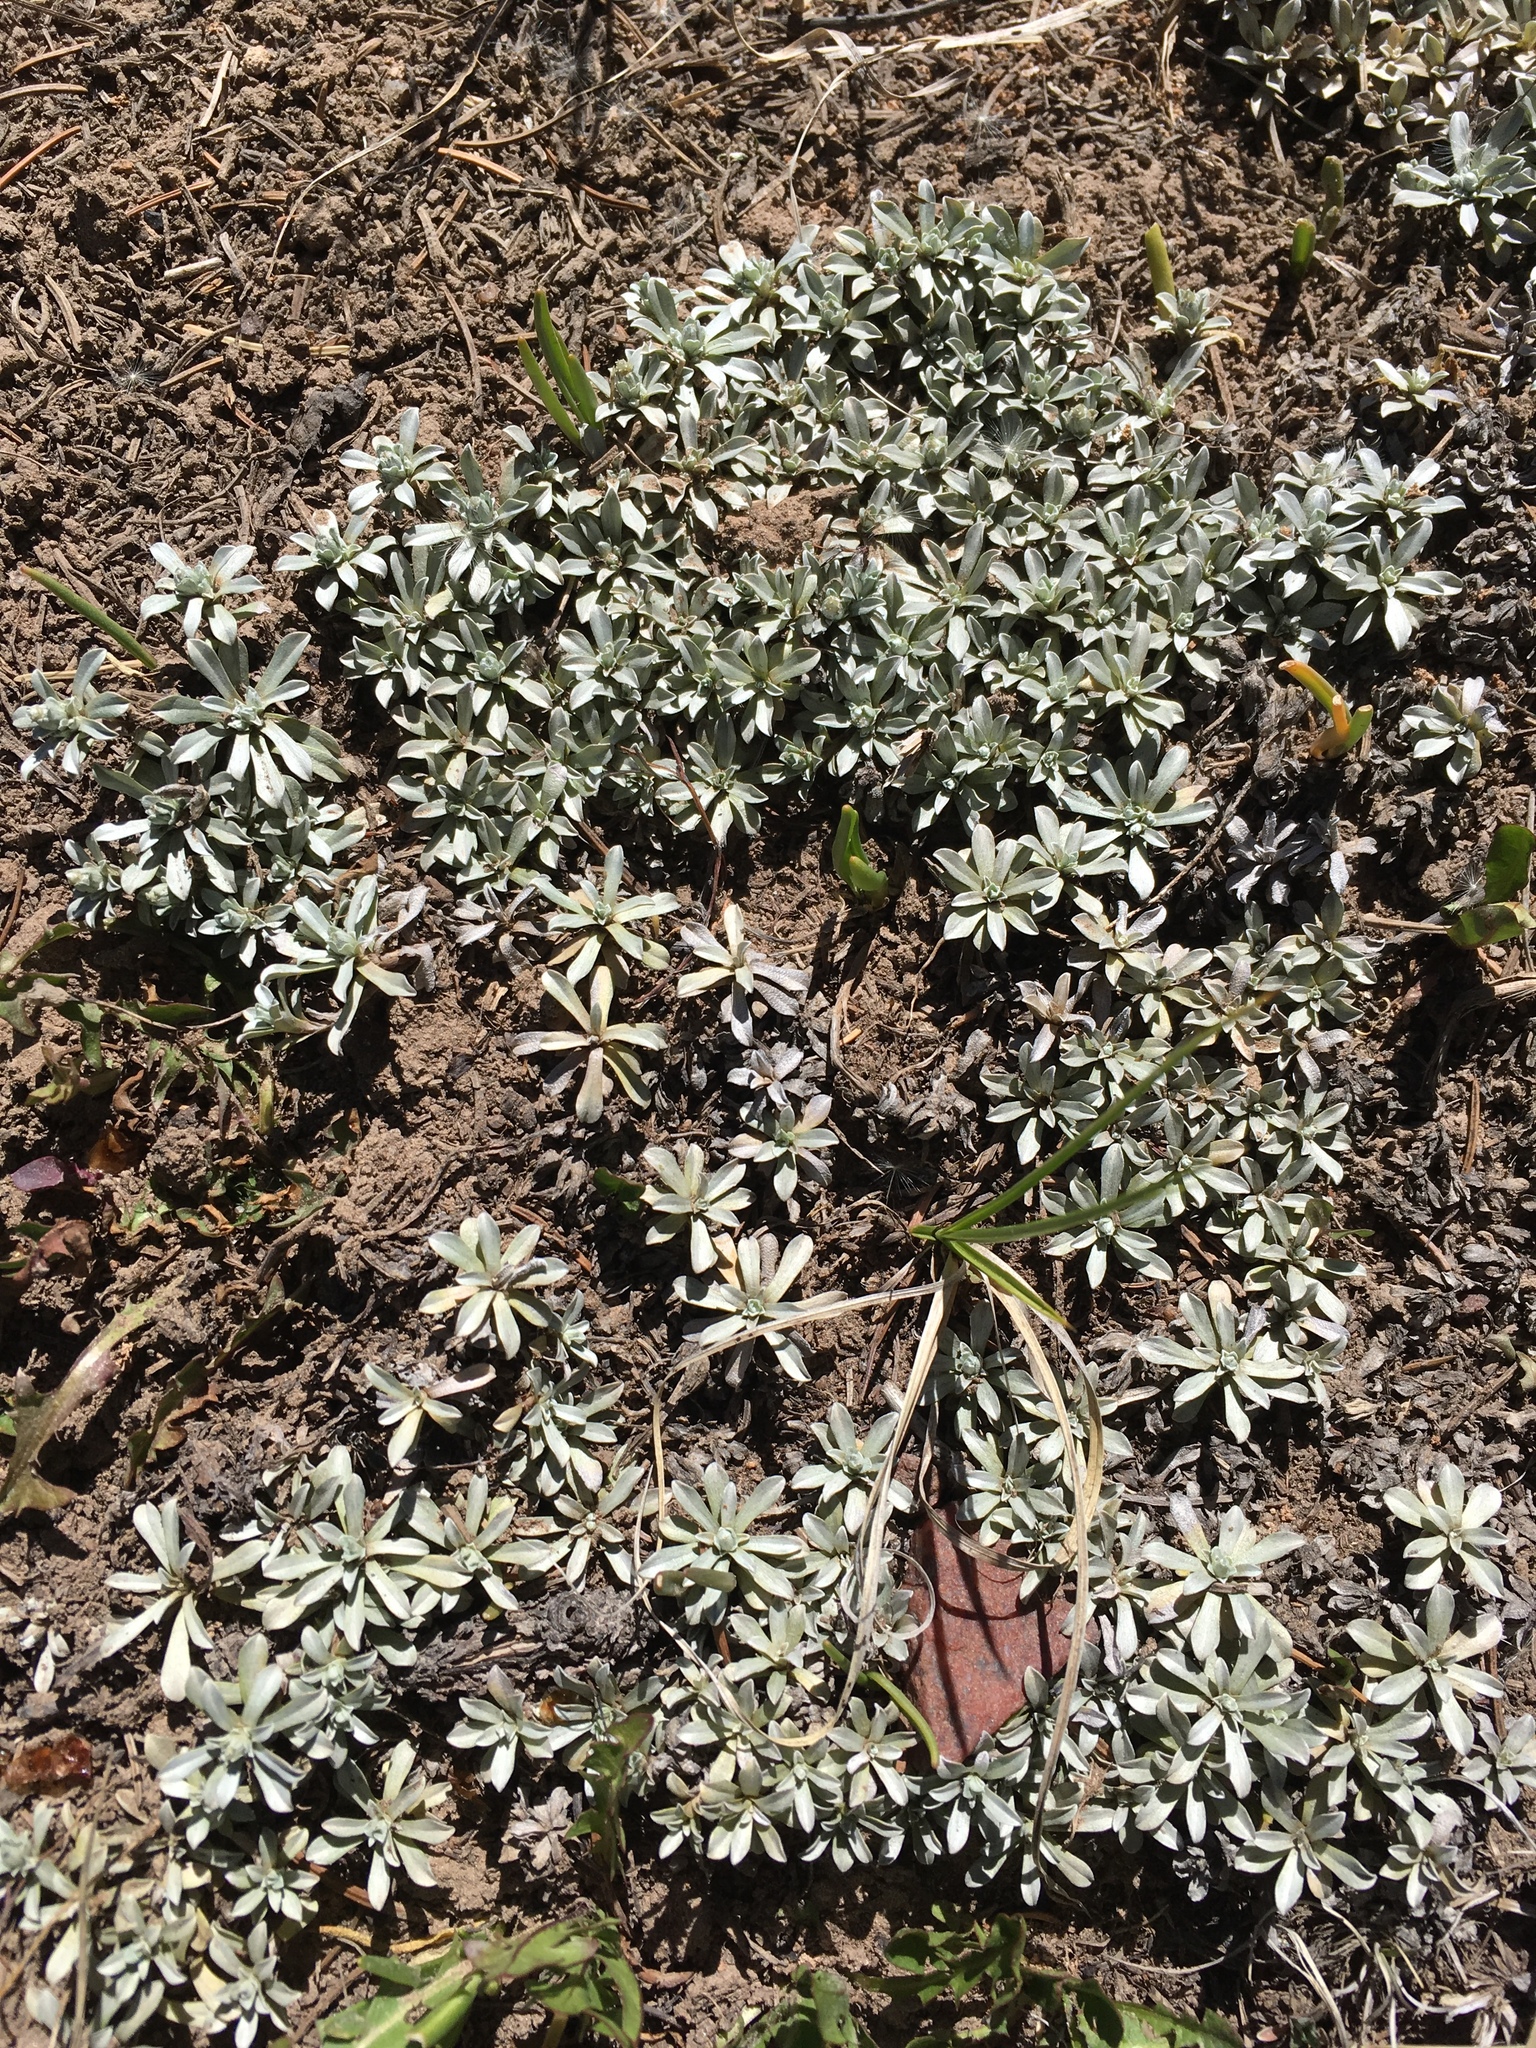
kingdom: Plantae
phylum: Tracheophyta
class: Magnoliopsida
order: Asterales
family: Asteraceae
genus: Antennaria
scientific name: Antennaria rosulata
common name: Woolly pussytoes
